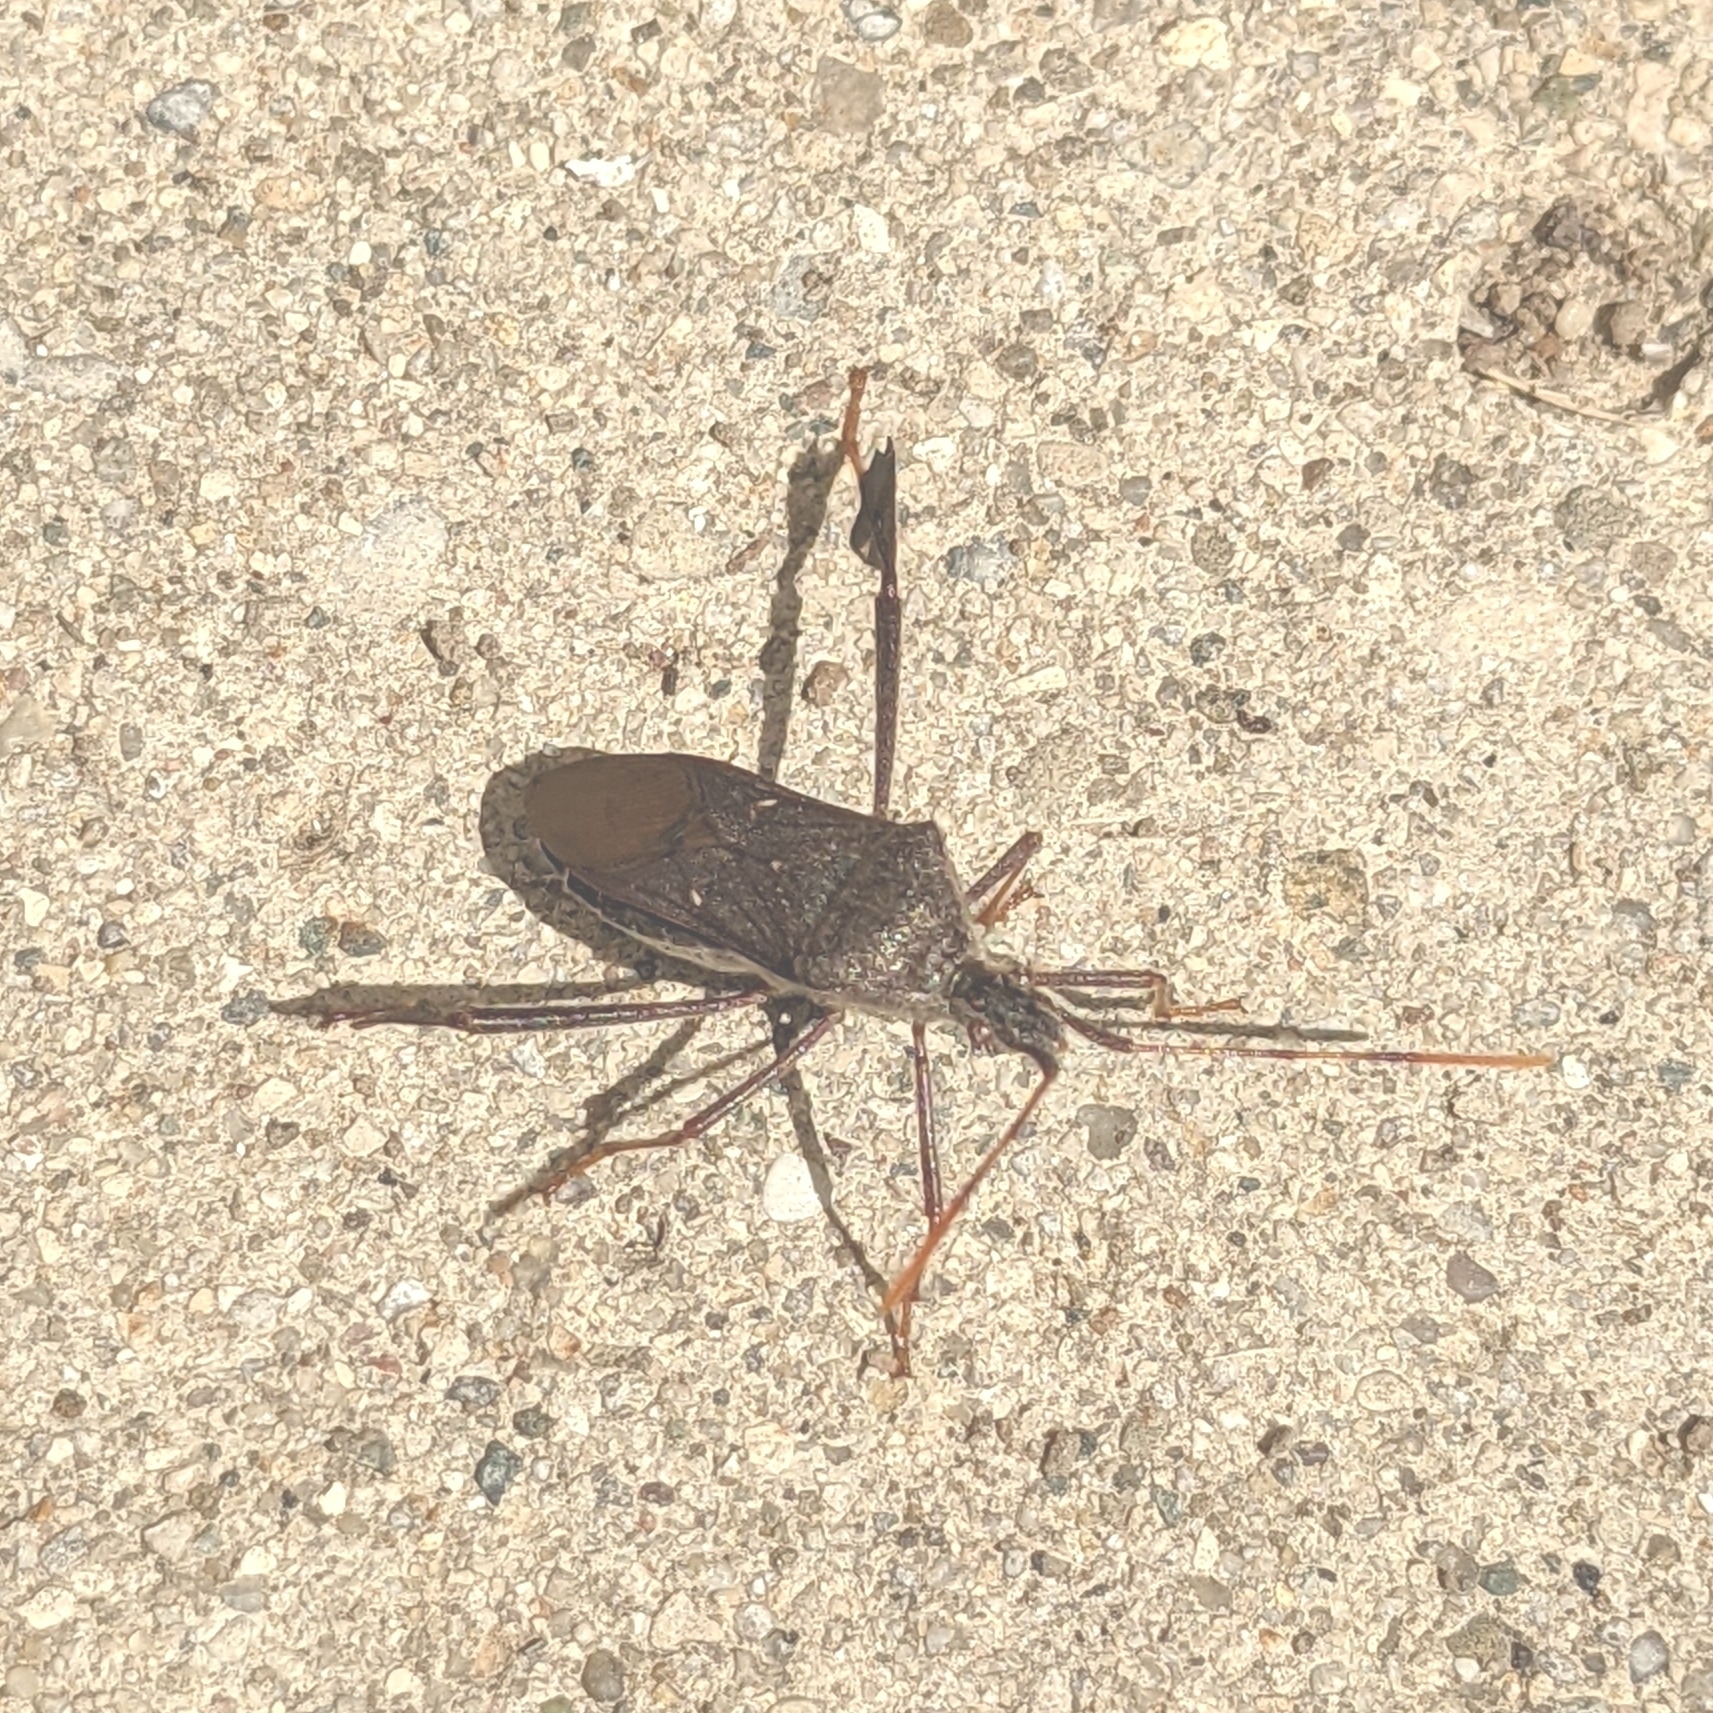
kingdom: Animalia
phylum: Arthropoda
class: Insecta
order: Hemiptera
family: Coreidae
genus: Leptoglossus
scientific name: Leptoglossus oppositus
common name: Northern leaf-footed bug
